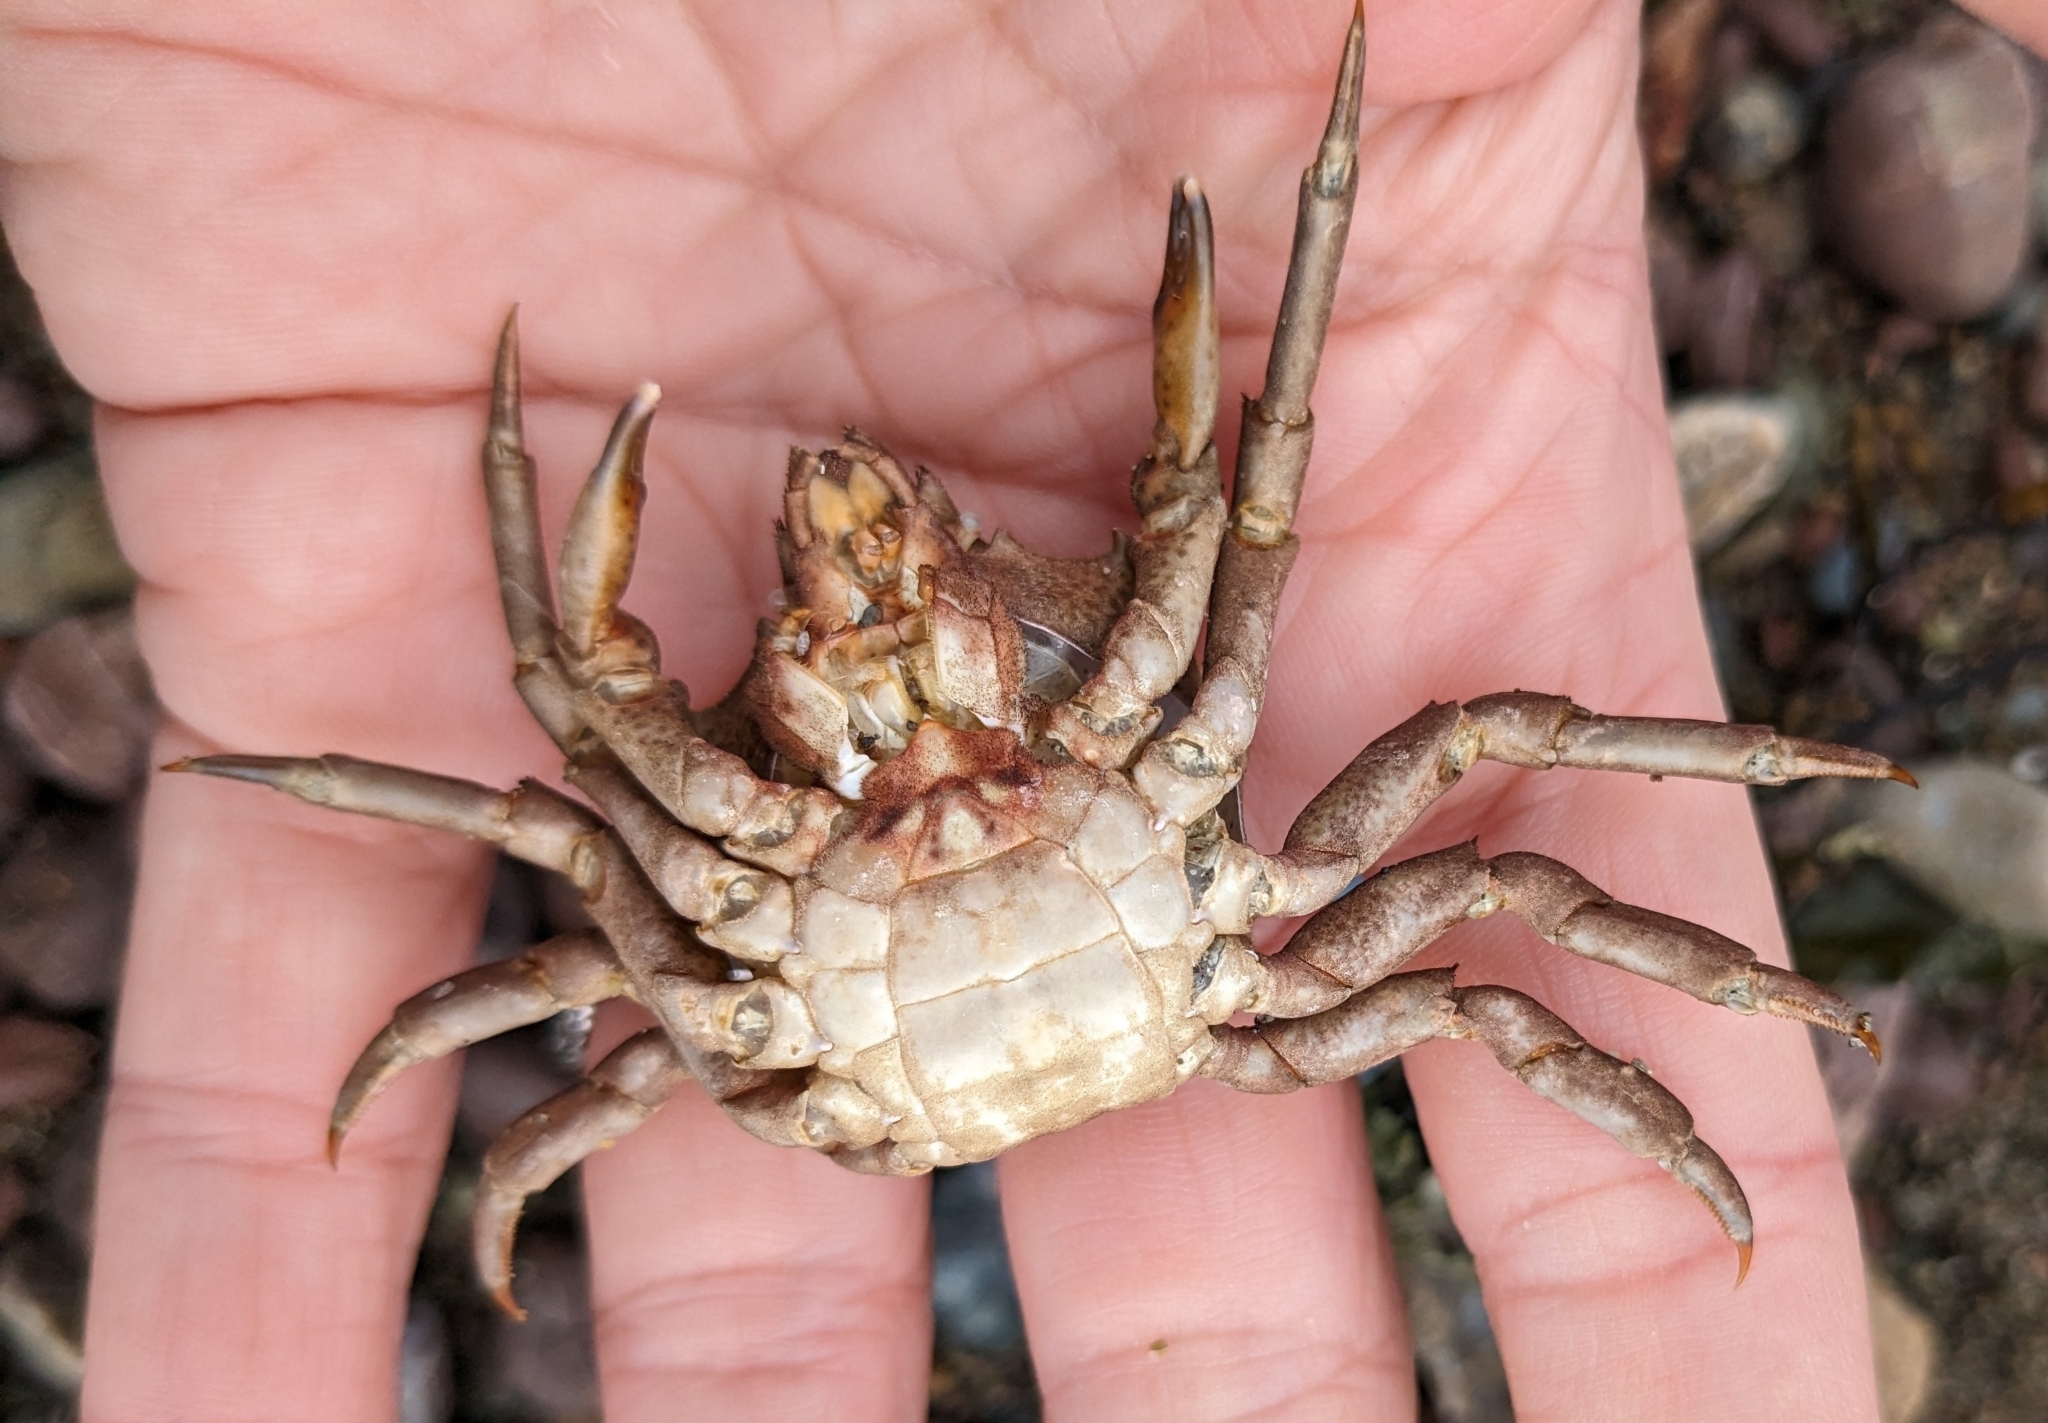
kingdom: Animalia
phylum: Arthropoda
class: Malacostraca
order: Decapoda
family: Epialtidae
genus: Pugettia
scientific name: Pugettia producta
